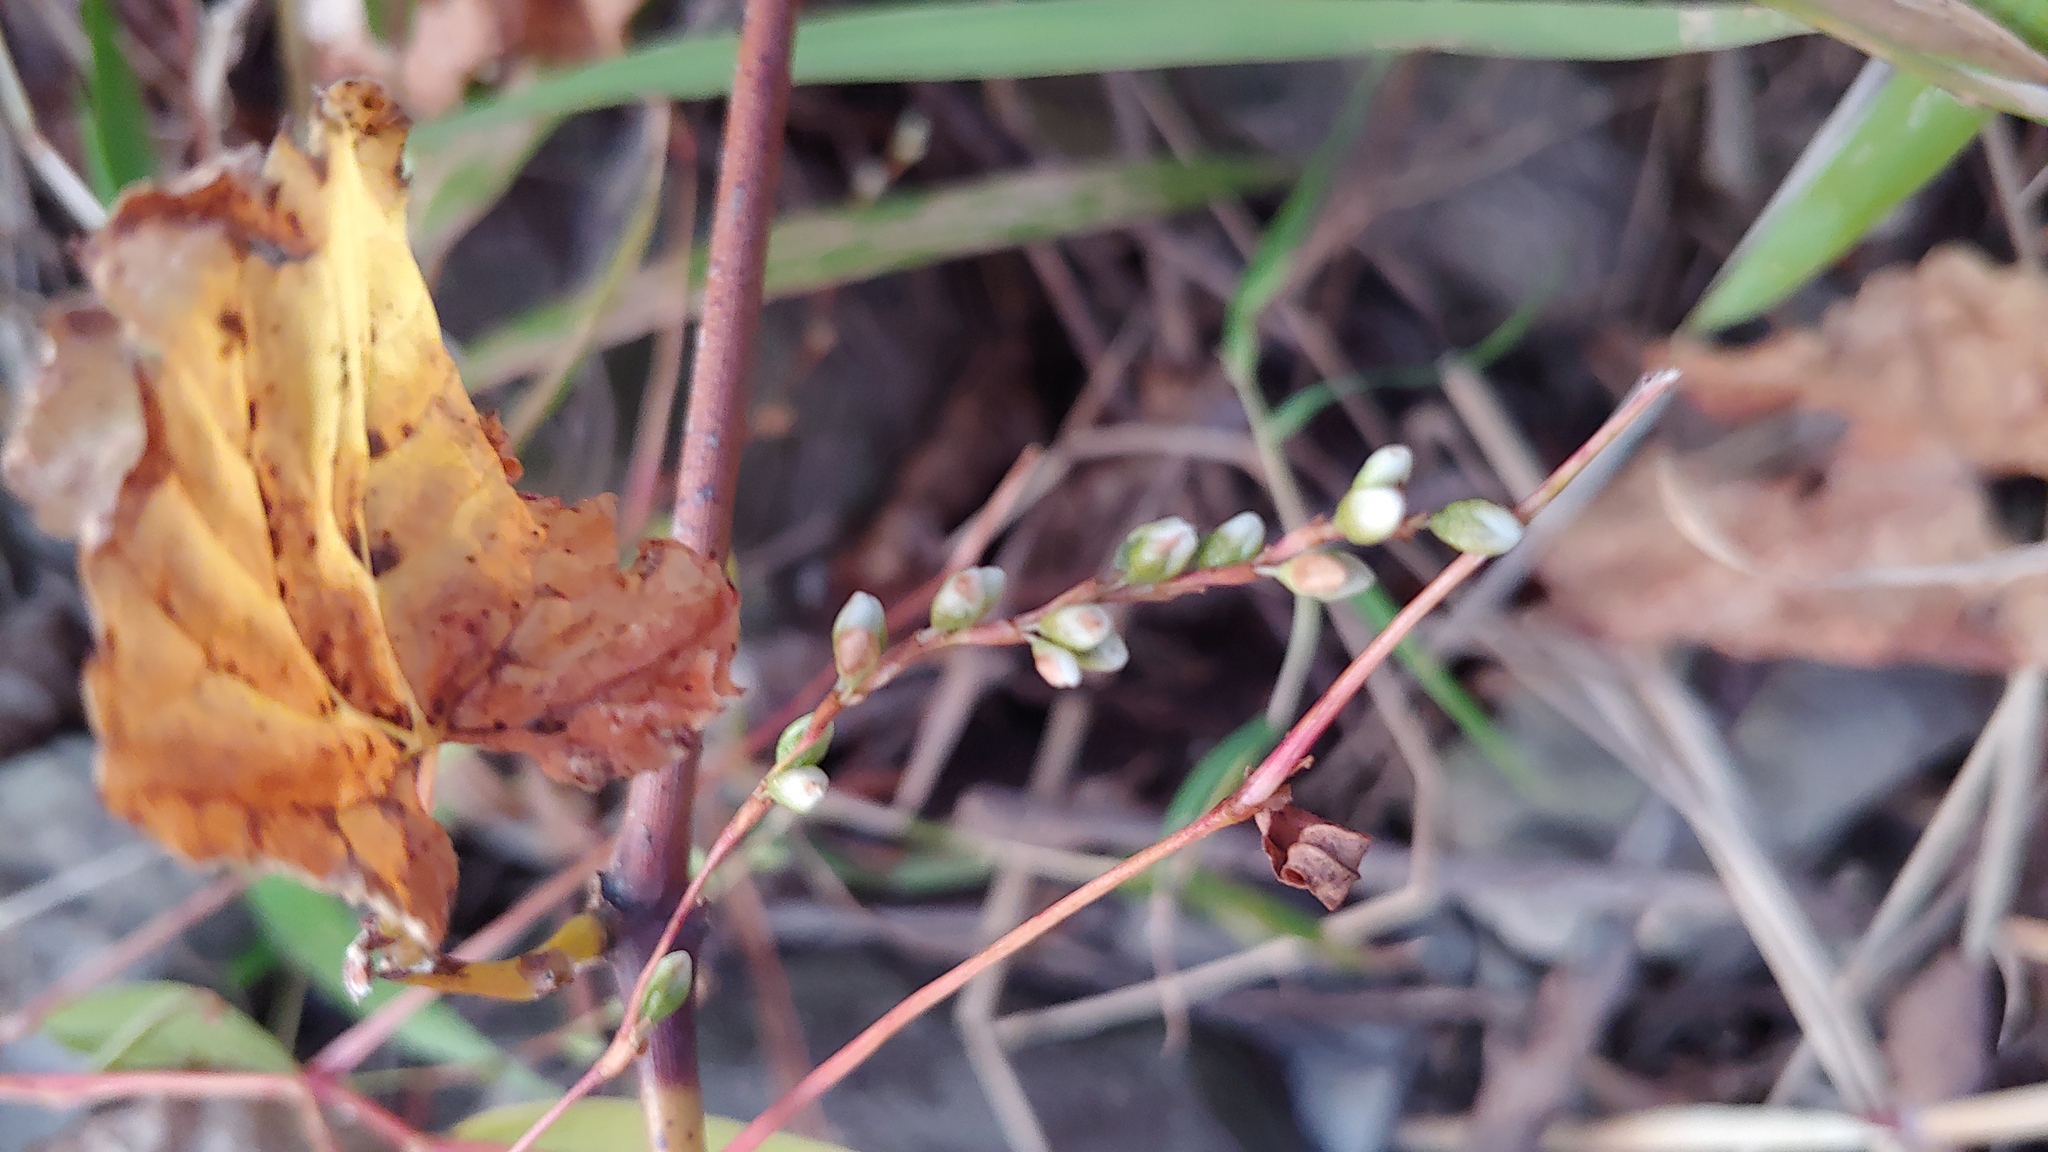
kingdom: Plantae
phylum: Tracheophyta
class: Magnoliopsida
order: Caryophyllales
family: Polygonaceae
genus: Persicaria
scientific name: Persicaria punctata
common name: Dotted smartweed
